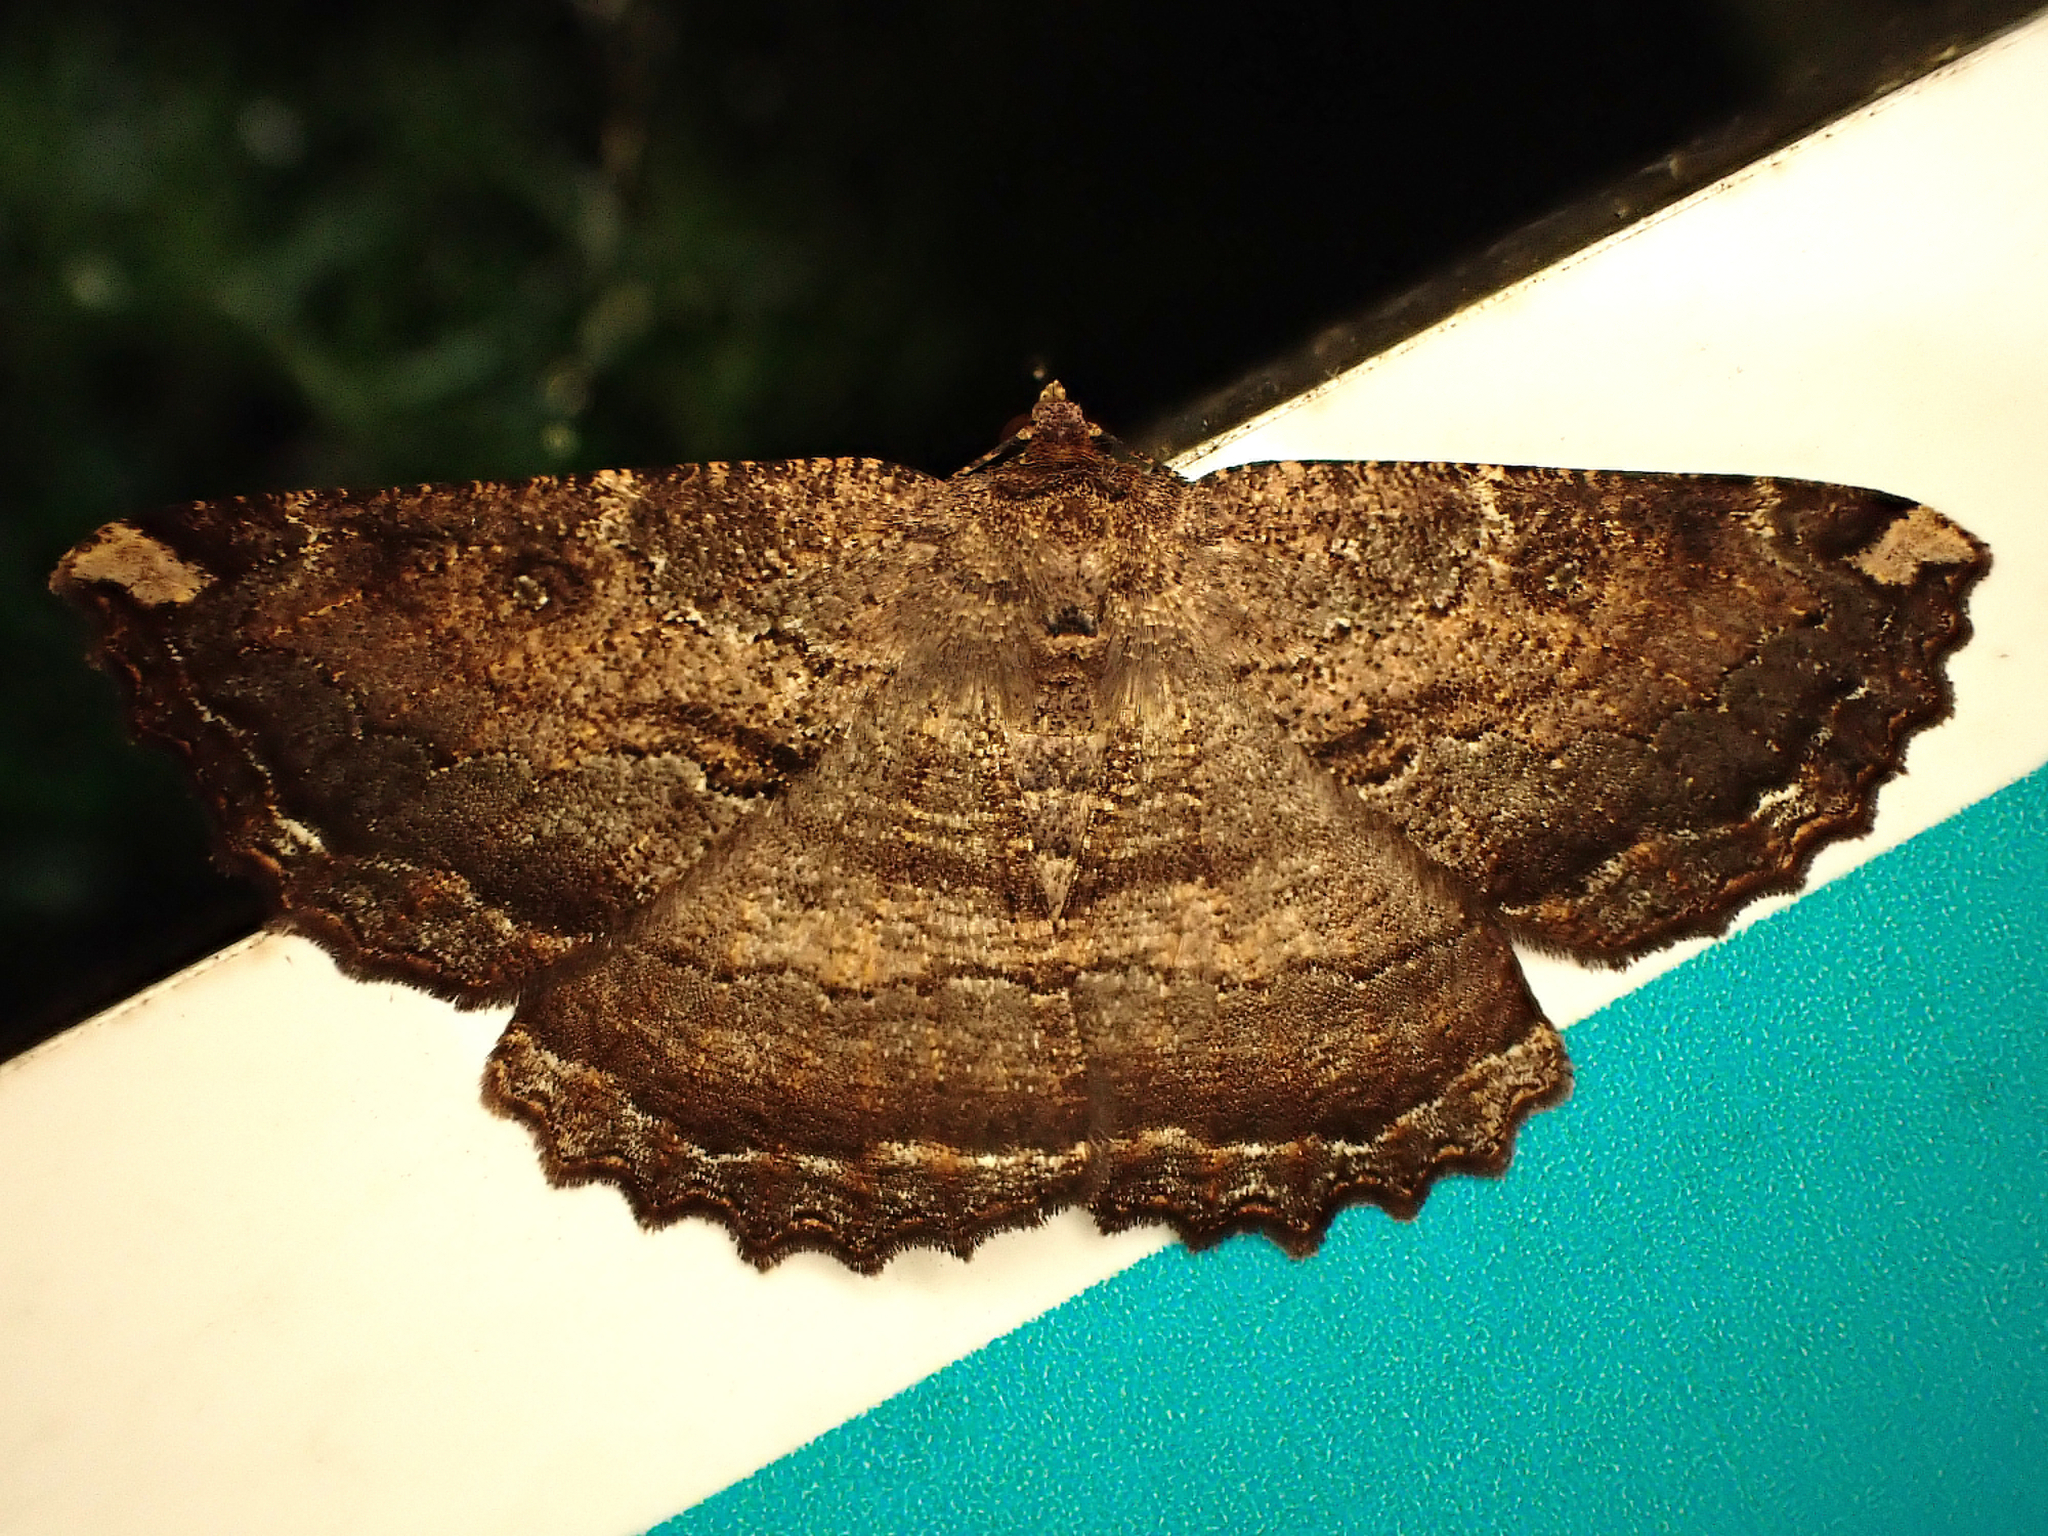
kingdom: Animalia
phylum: Arthropoda
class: Insecta
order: Lepidoptera
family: Geometridae
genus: Gellonia
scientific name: Gellonia dejectaria
